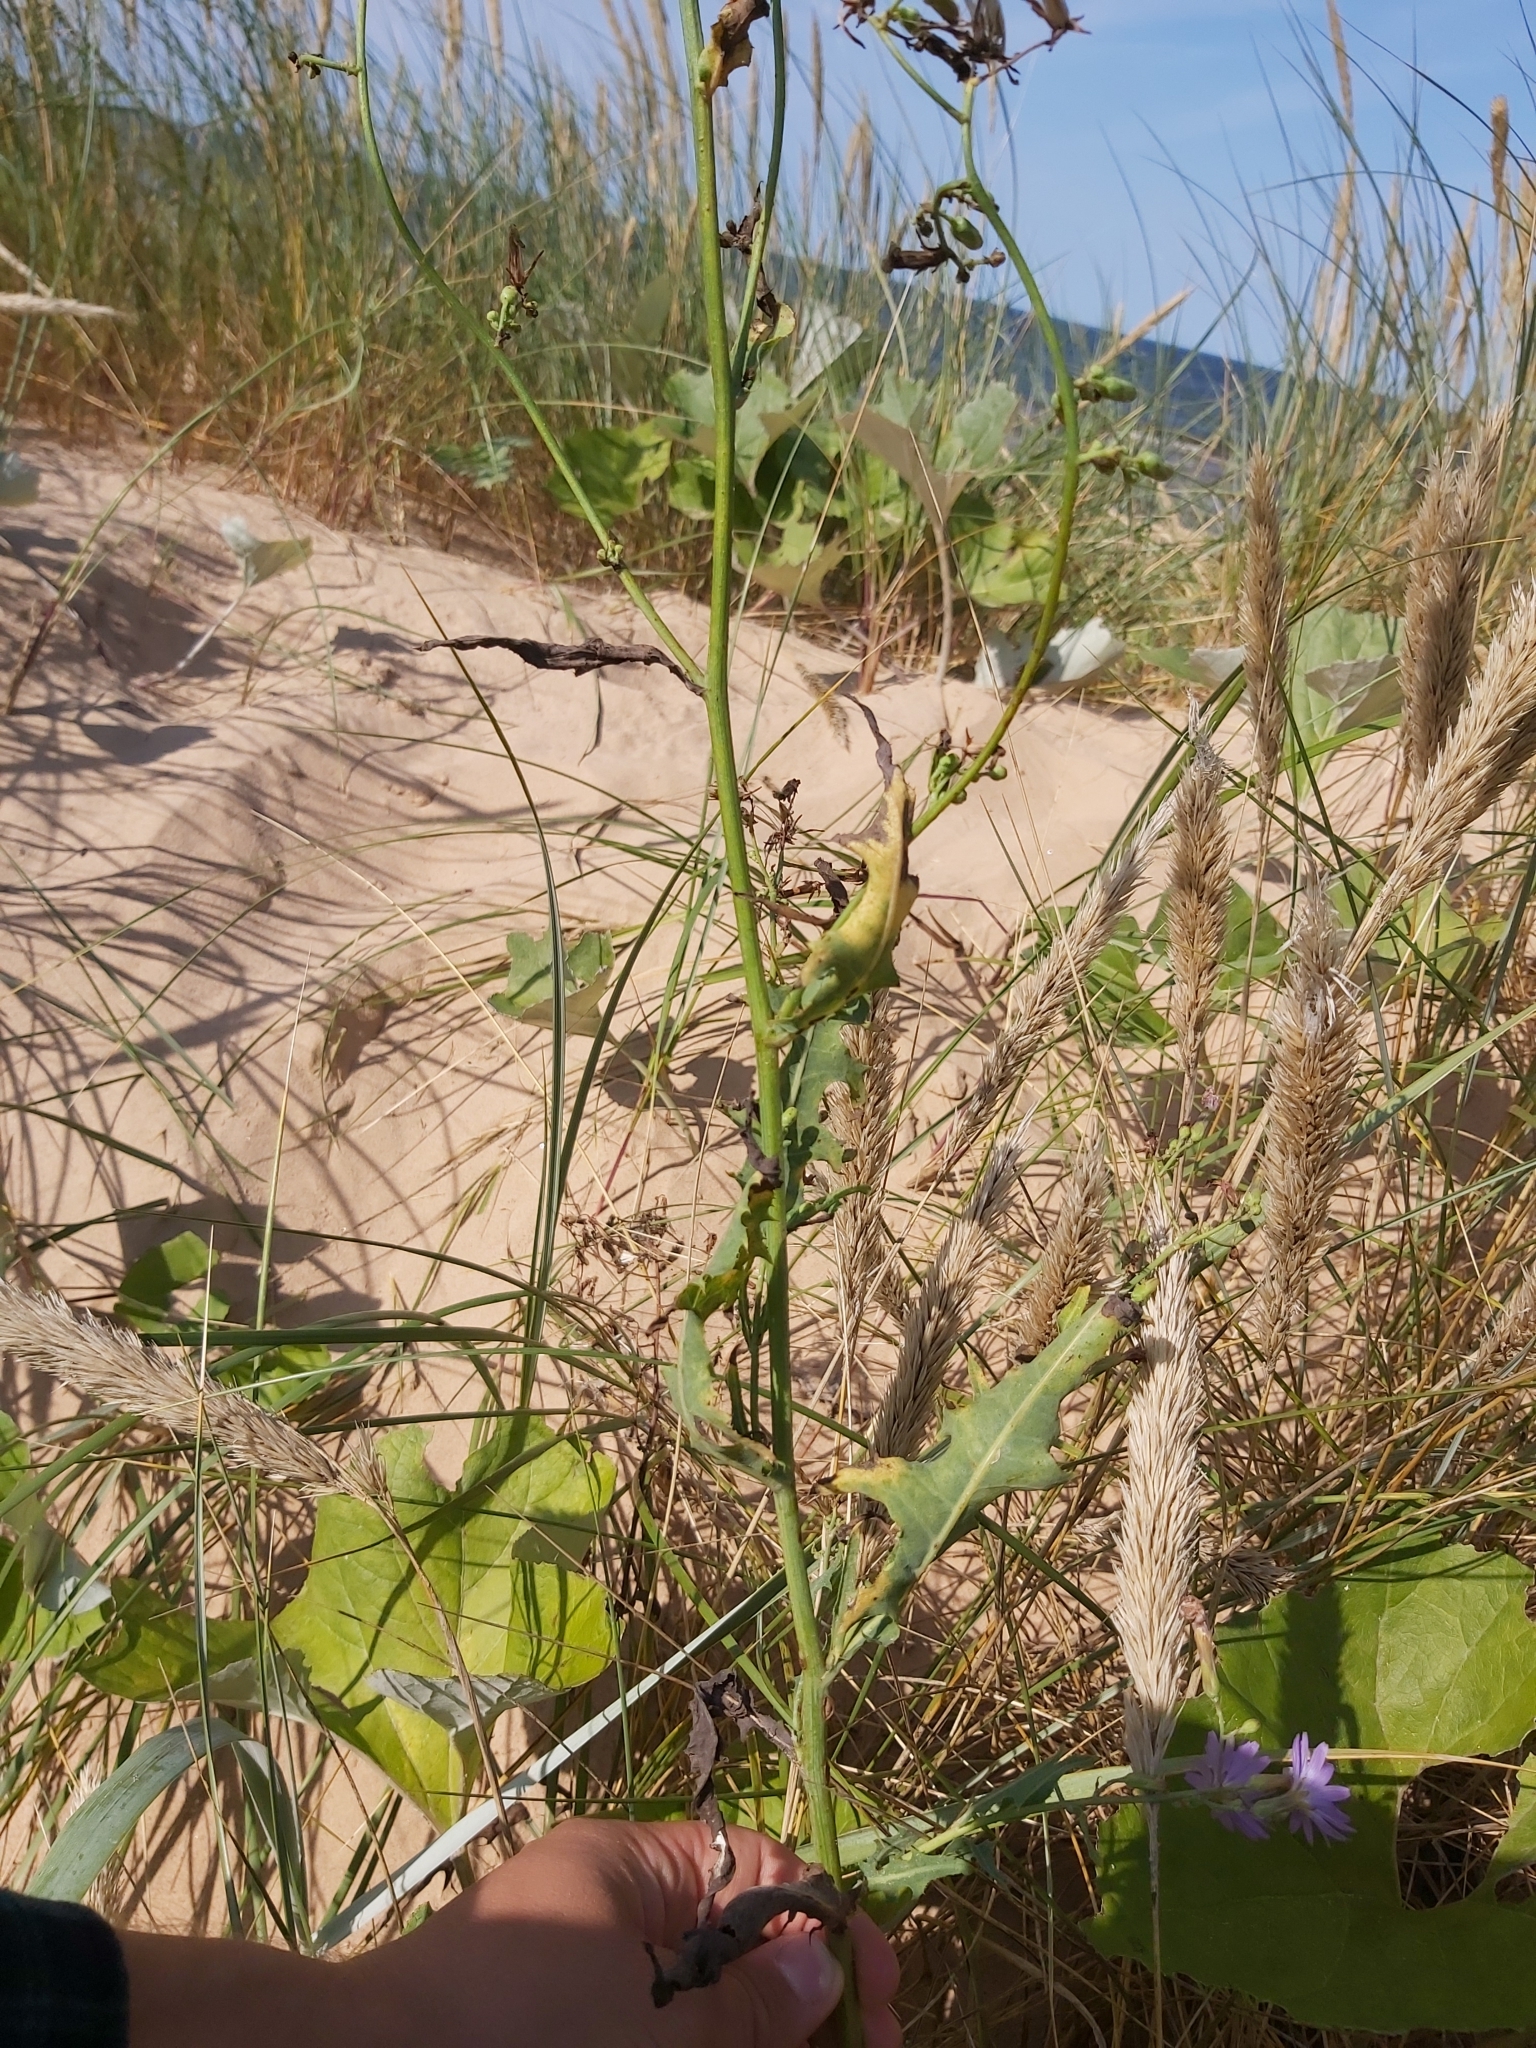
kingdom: Plantae
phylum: Tracheophyta
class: Magnoliopsida
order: Asterales
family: Asteraceae
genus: Lactuca
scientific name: Lactuca tatarica
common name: Blue lettuce
